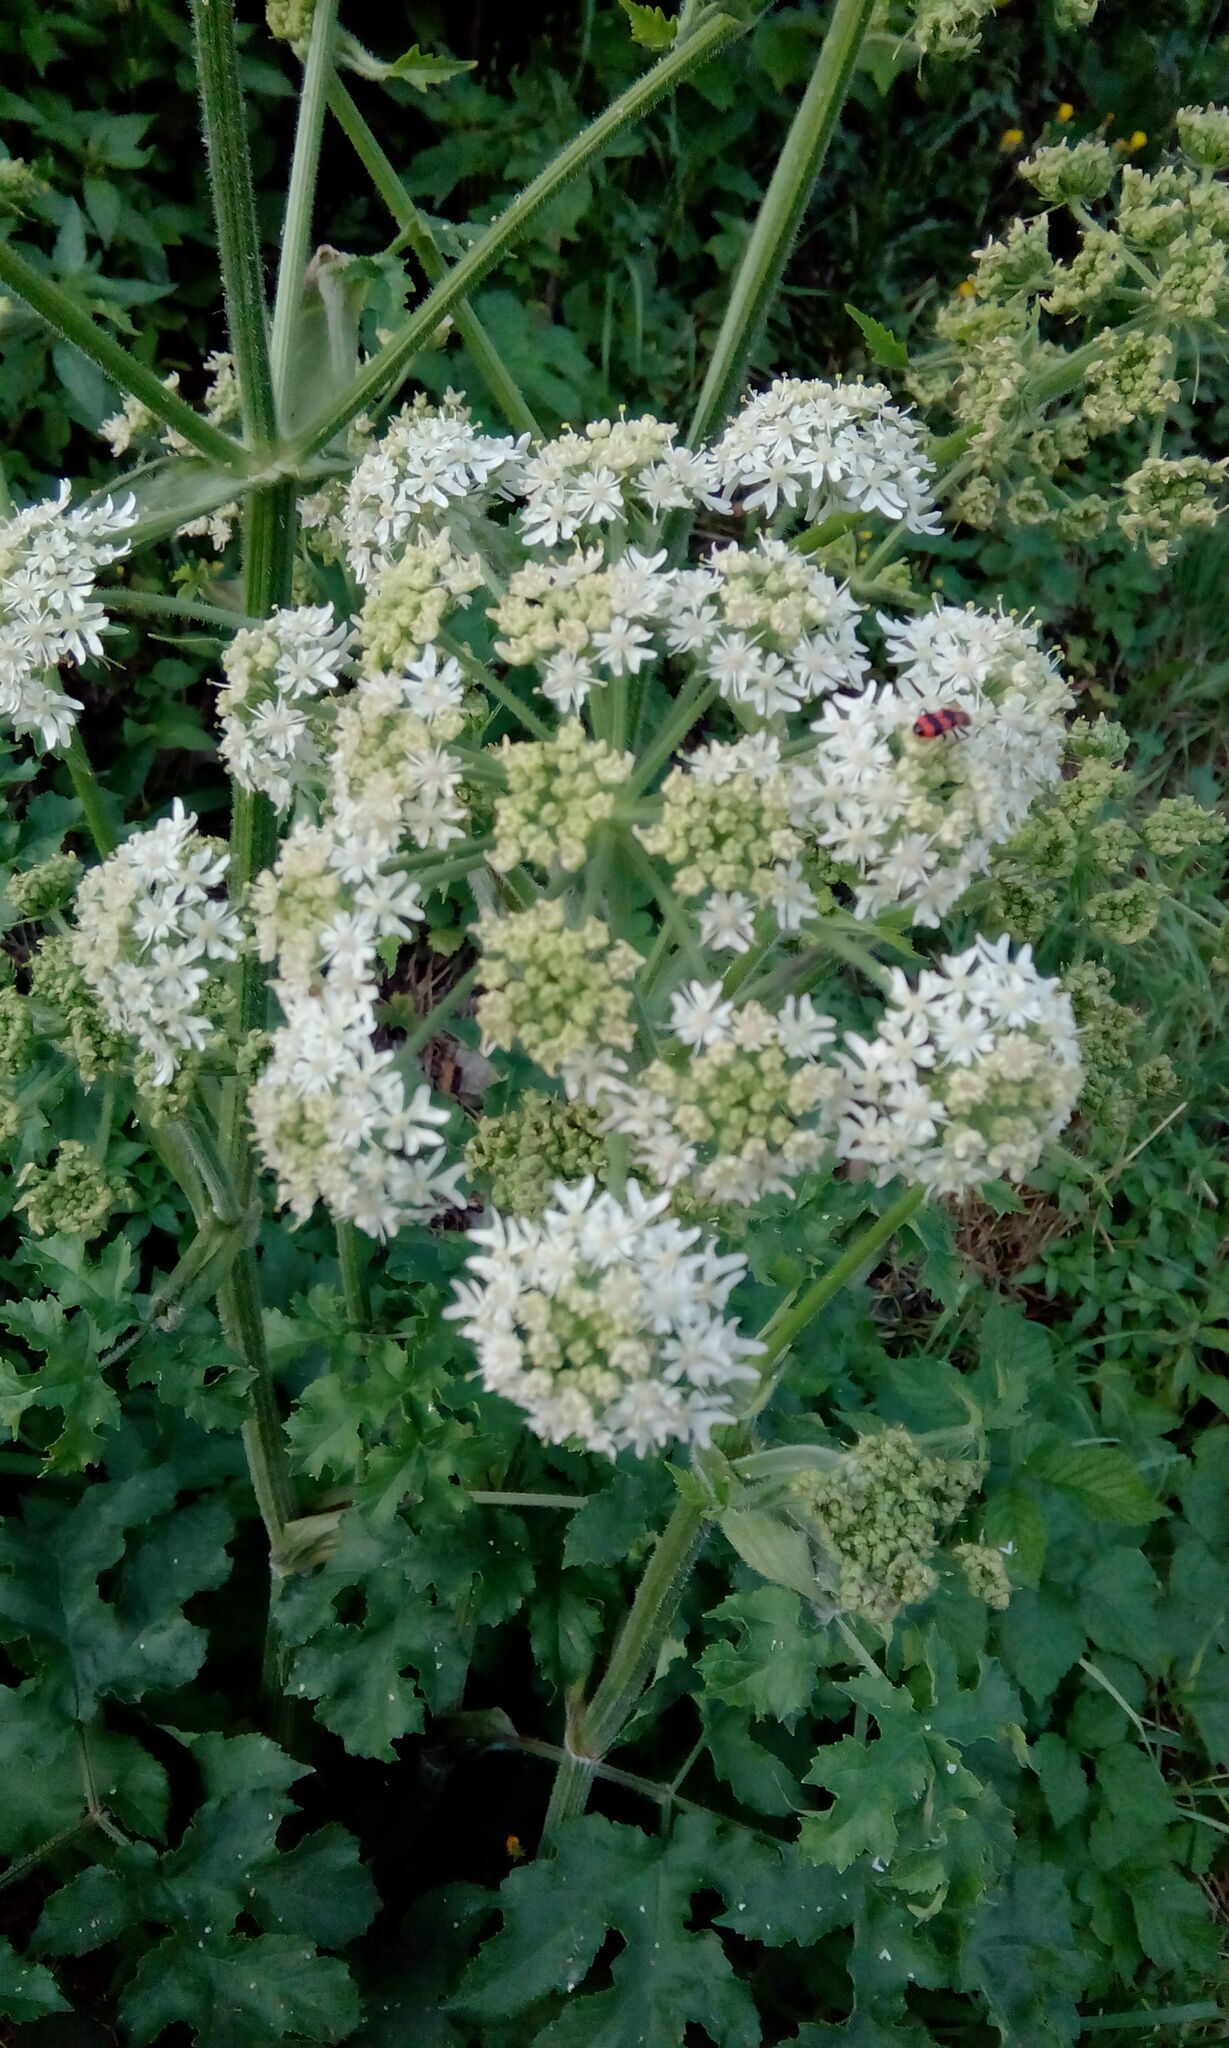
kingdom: Plantae
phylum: Tracheophyta
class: Magnoliopsida
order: Apiales
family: Apiaceae
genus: Heracleum
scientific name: Heracleum sphondylium
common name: Hogweed
